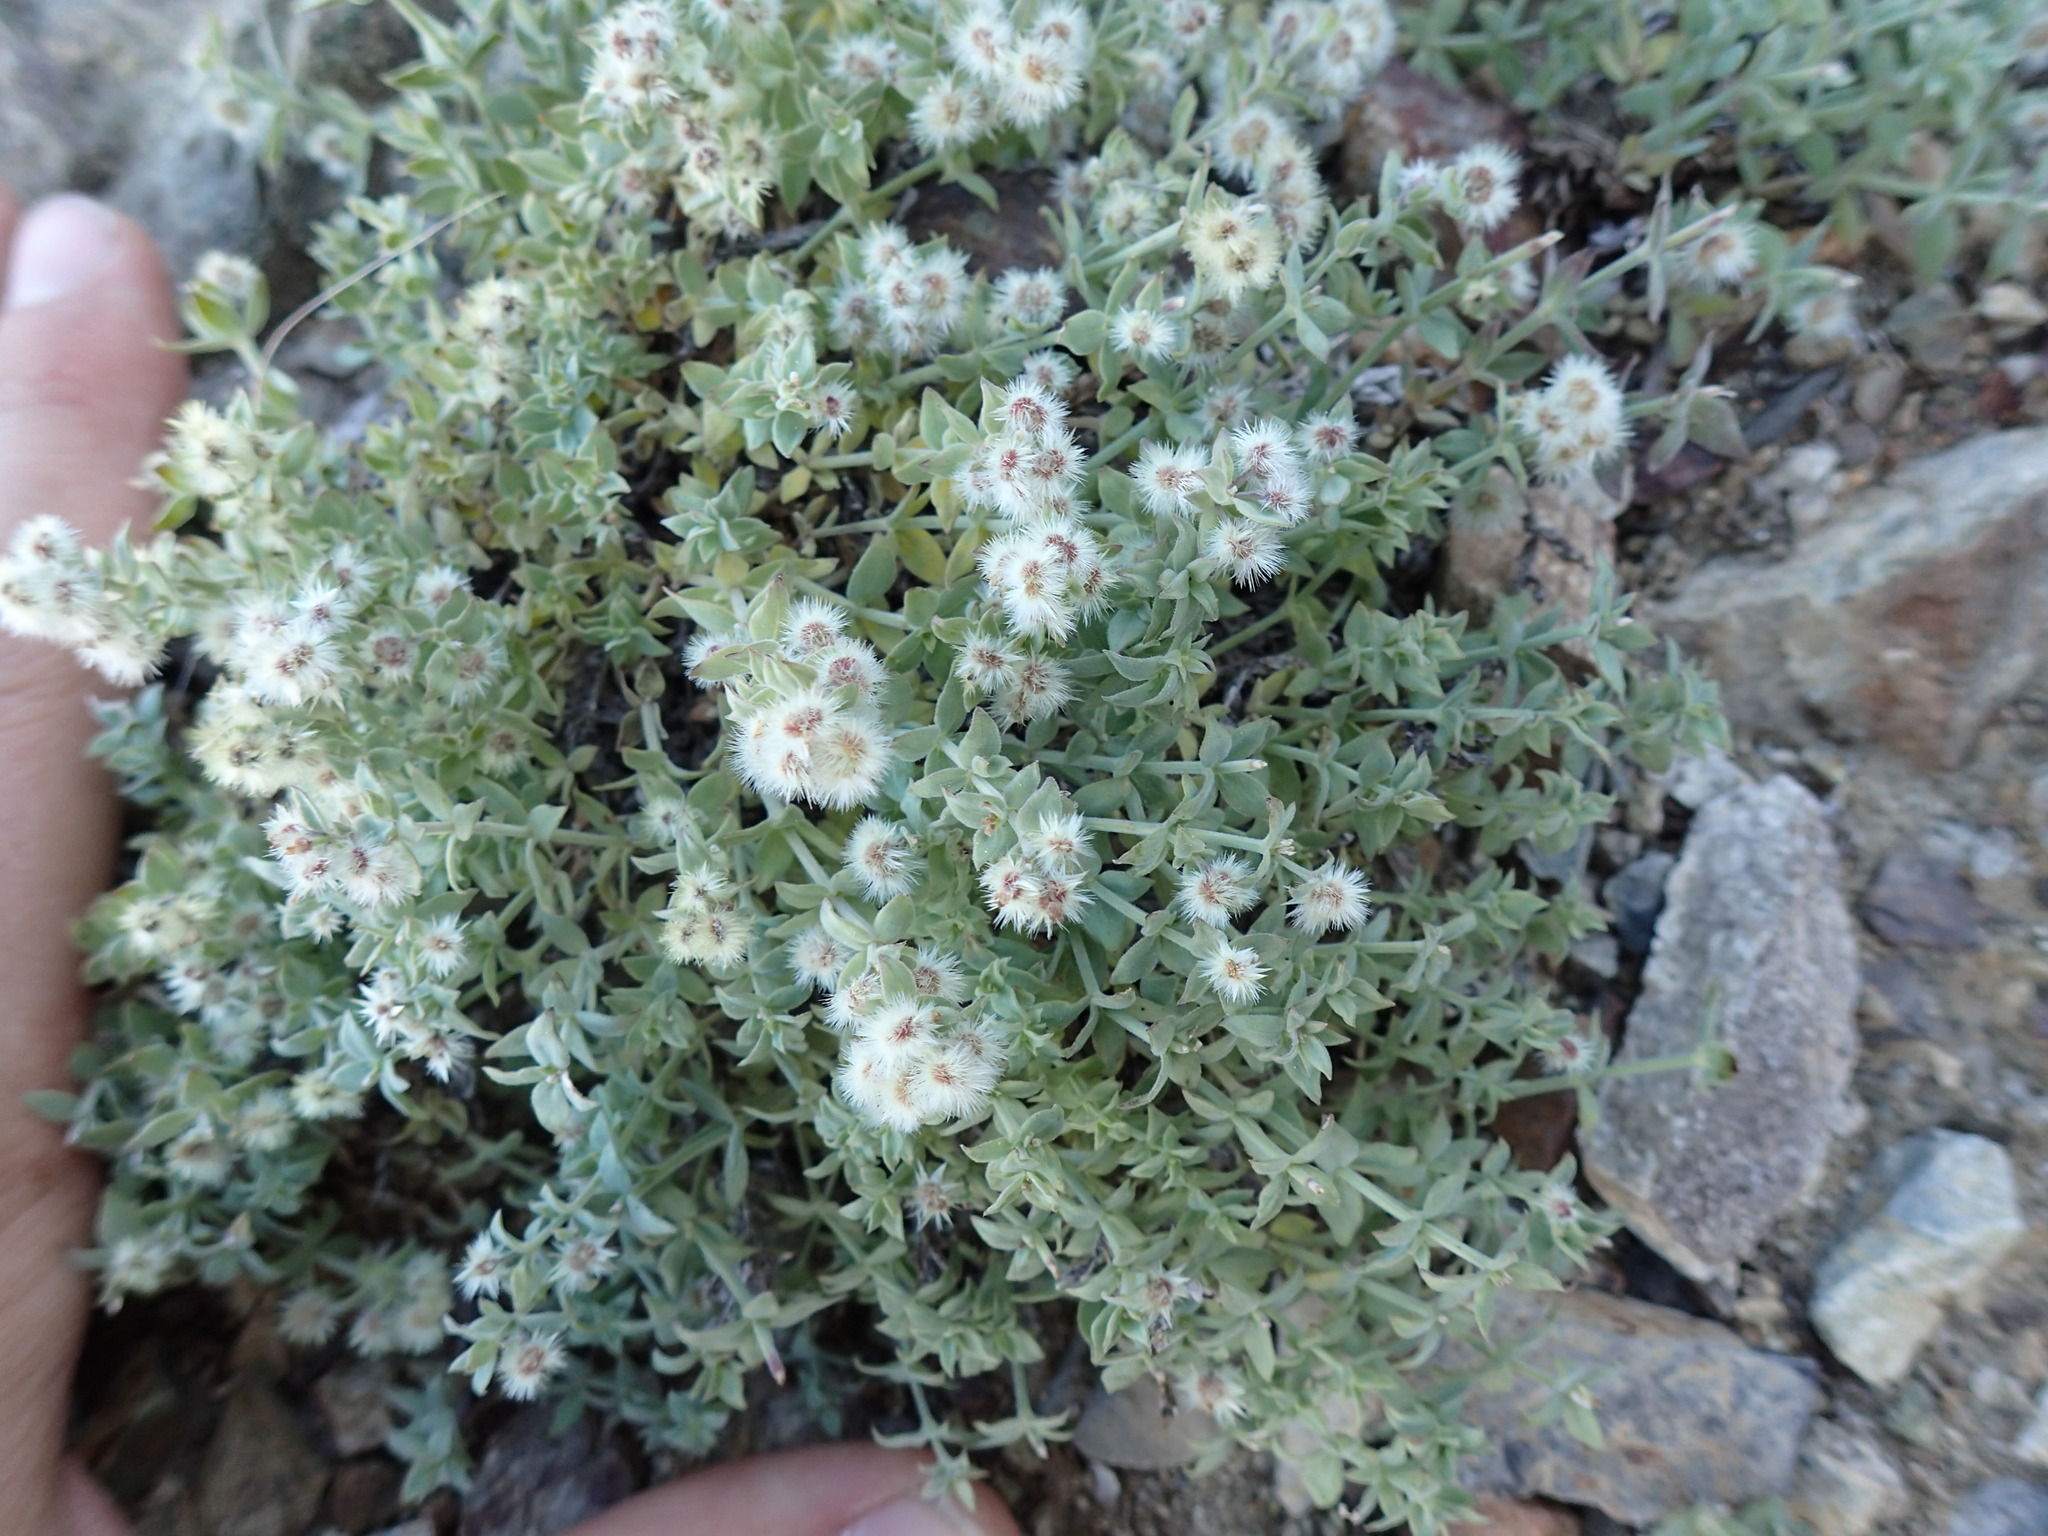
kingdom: Plantae
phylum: Tracheophyta
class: Magnoliopsida
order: Gentianales
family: Rubiaceae
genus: Galium
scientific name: Galium hypotrichium
